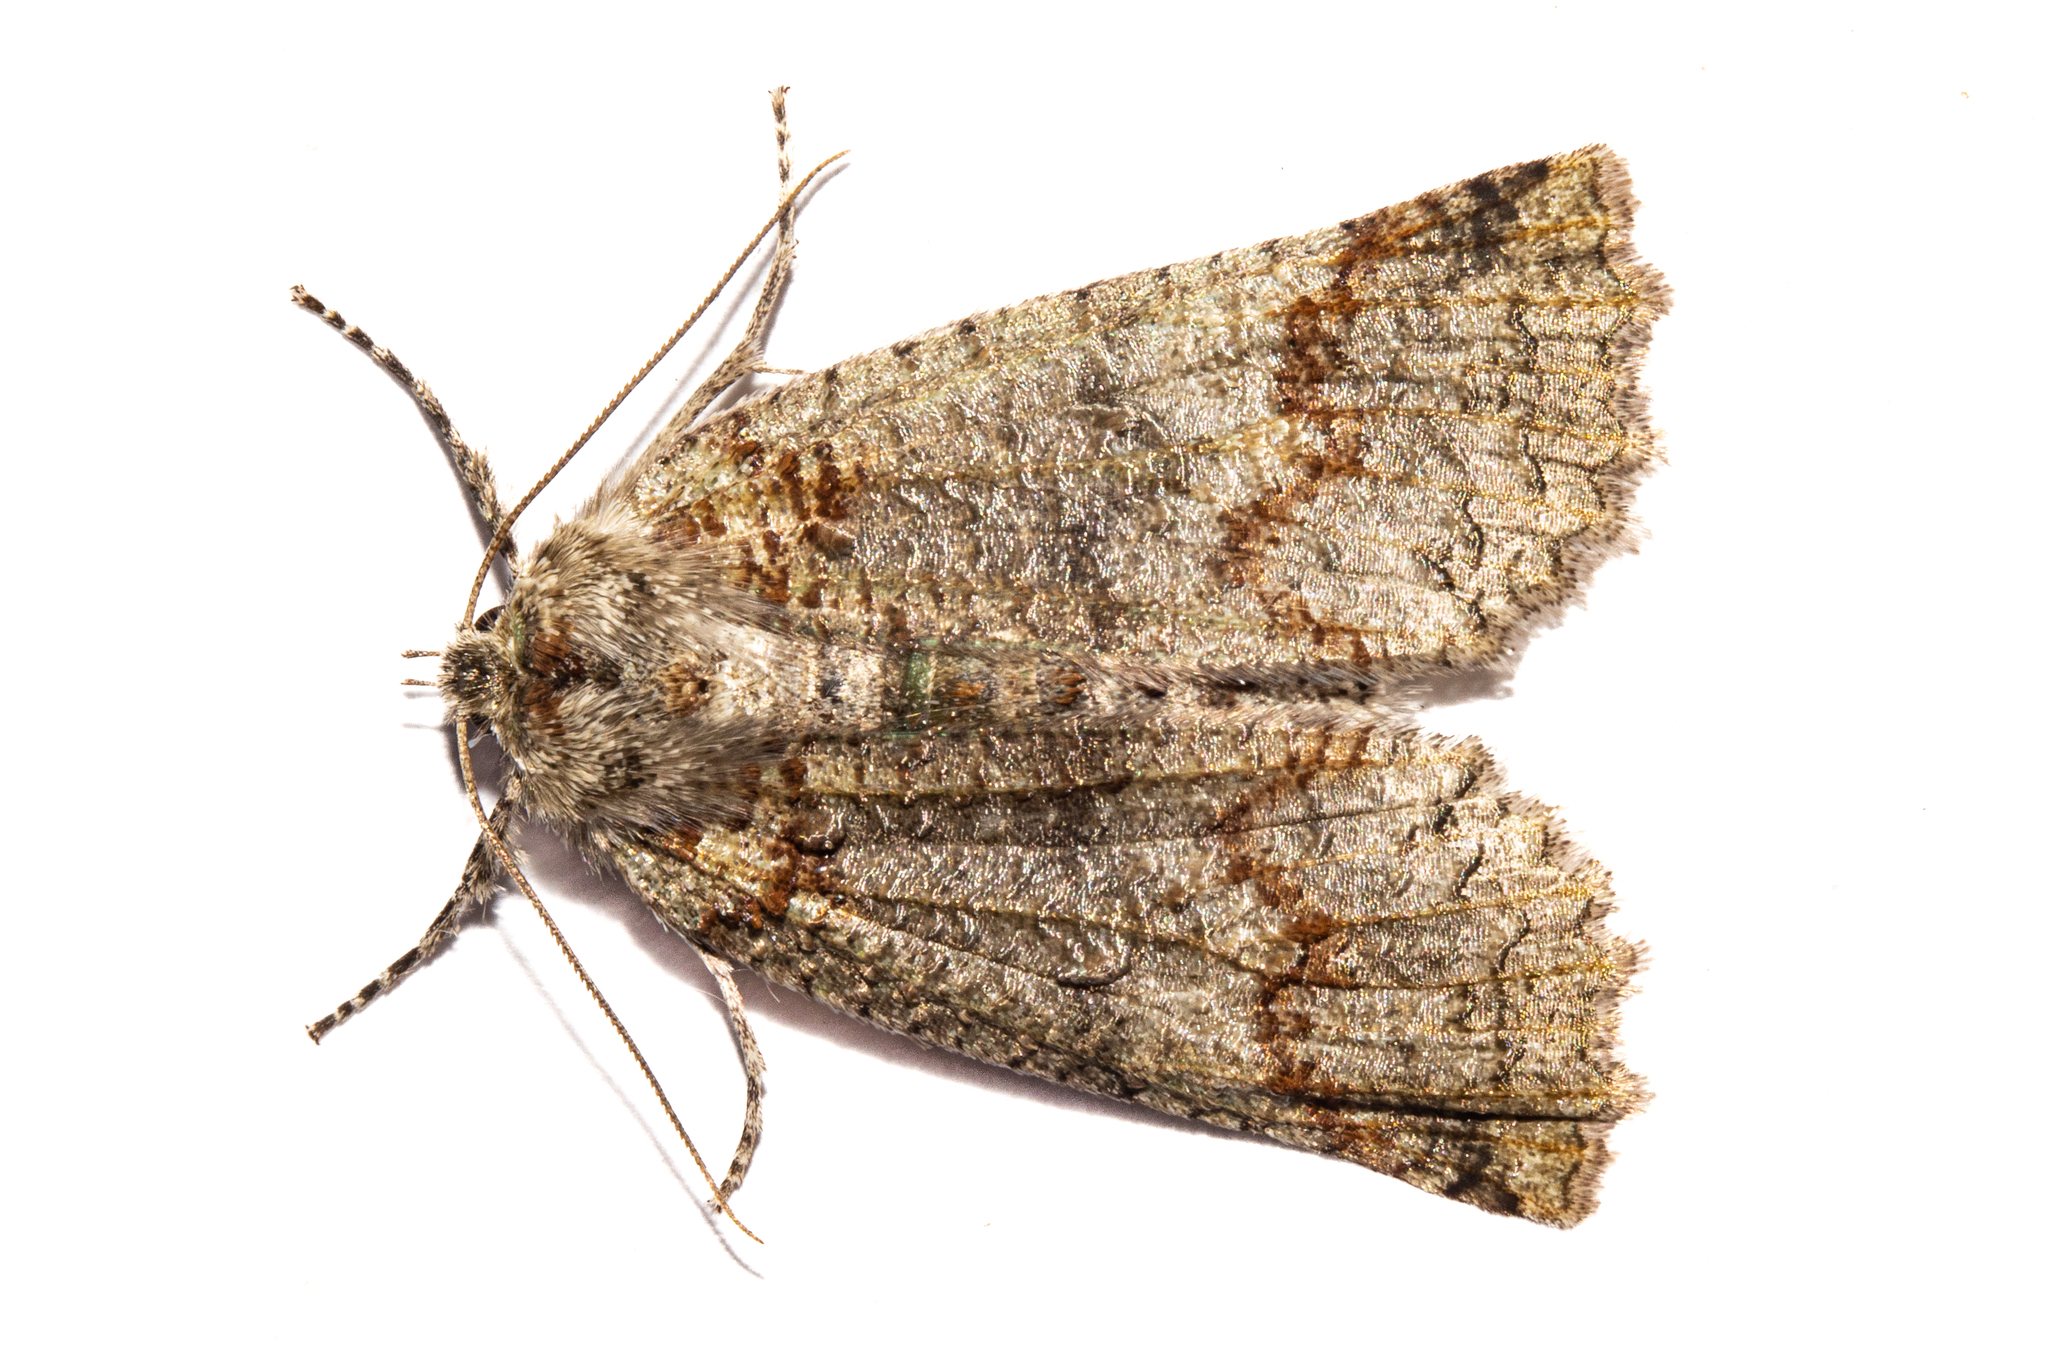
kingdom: Animalia
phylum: Arthropoda
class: Insecta
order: Lepidoptera
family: Geometridae
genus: Declana
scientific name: Declana floccosa
